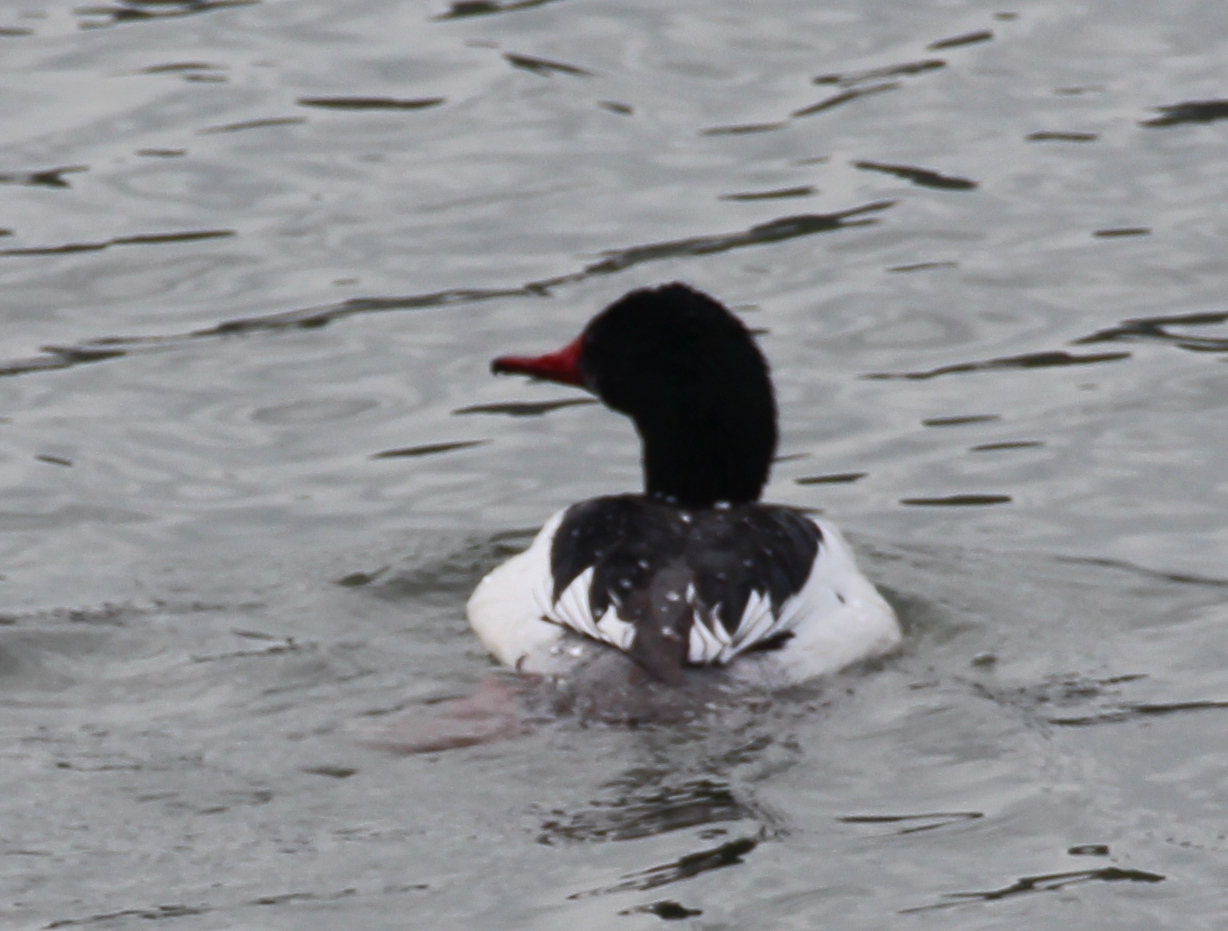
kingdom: Animalia
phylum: Chordata
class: Aves
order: Anseriformes
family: Anatidae
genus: Mergus
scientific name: Mergus merganser
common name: Common merganser
